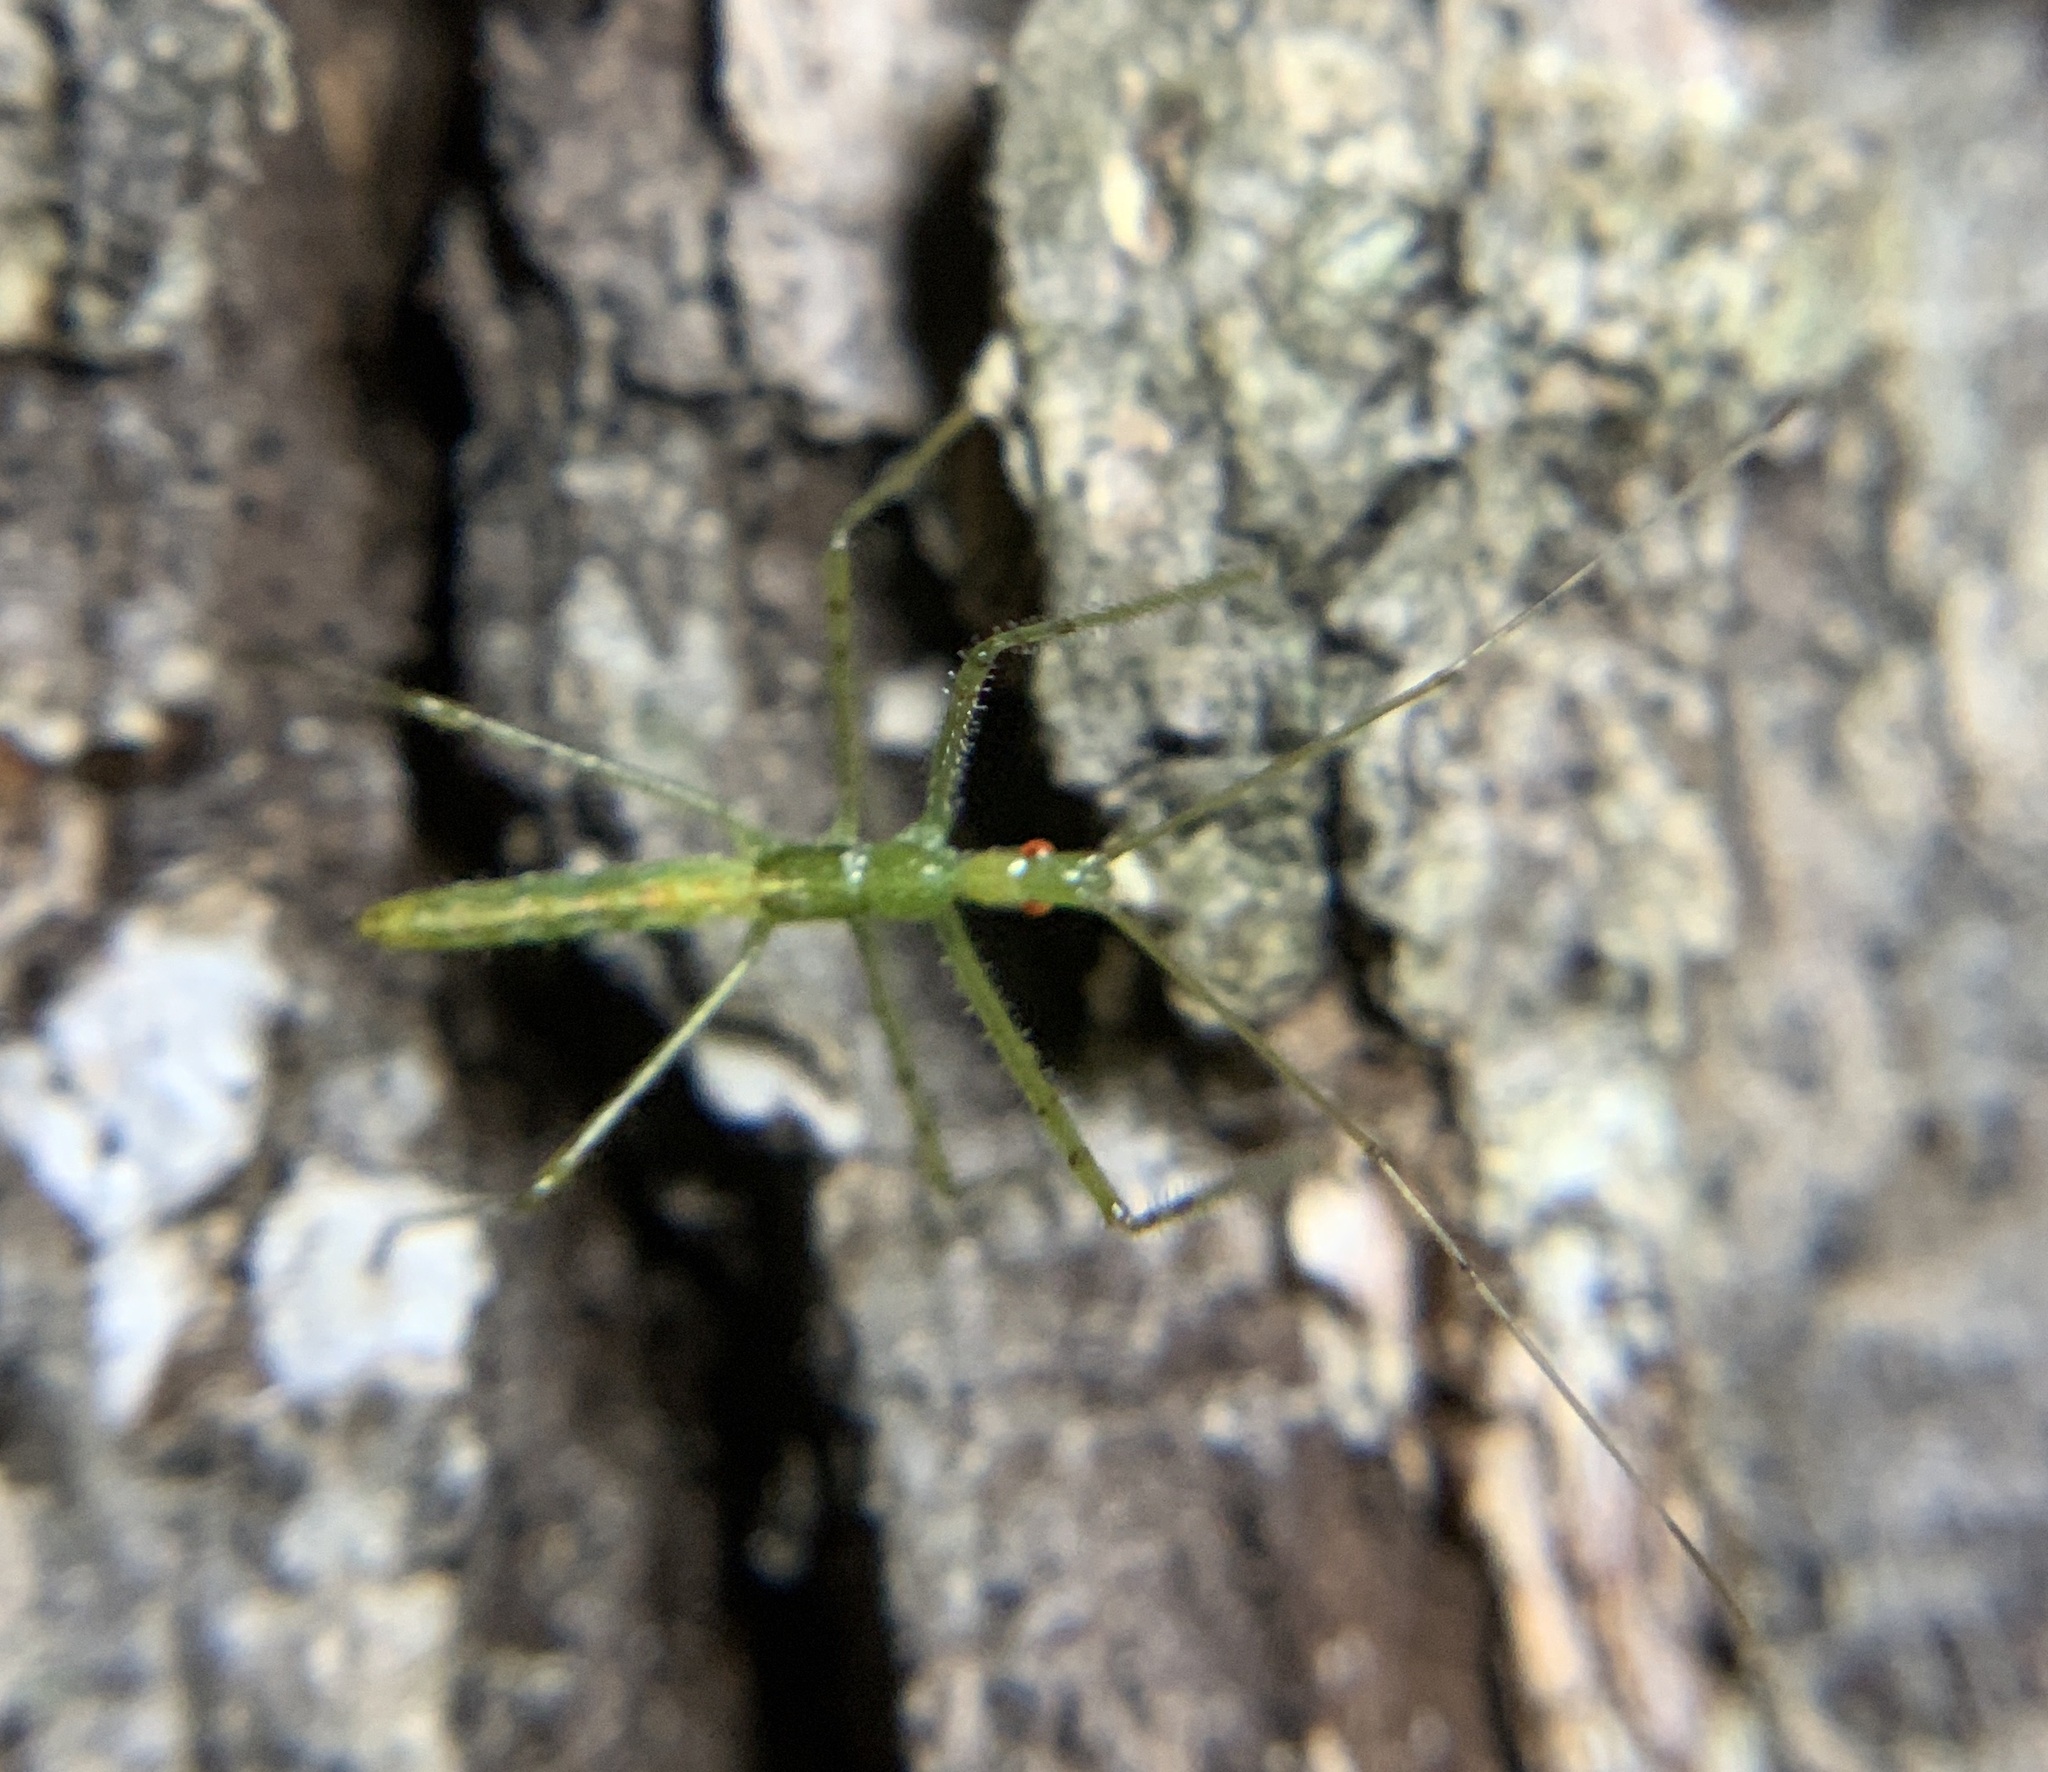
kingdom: Animalia
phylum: Arthropoda
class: Insecta
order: Hemiptera
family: Reduviidae
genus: Zelus
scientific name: Zelus luridus
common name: Pale green assassin bug
